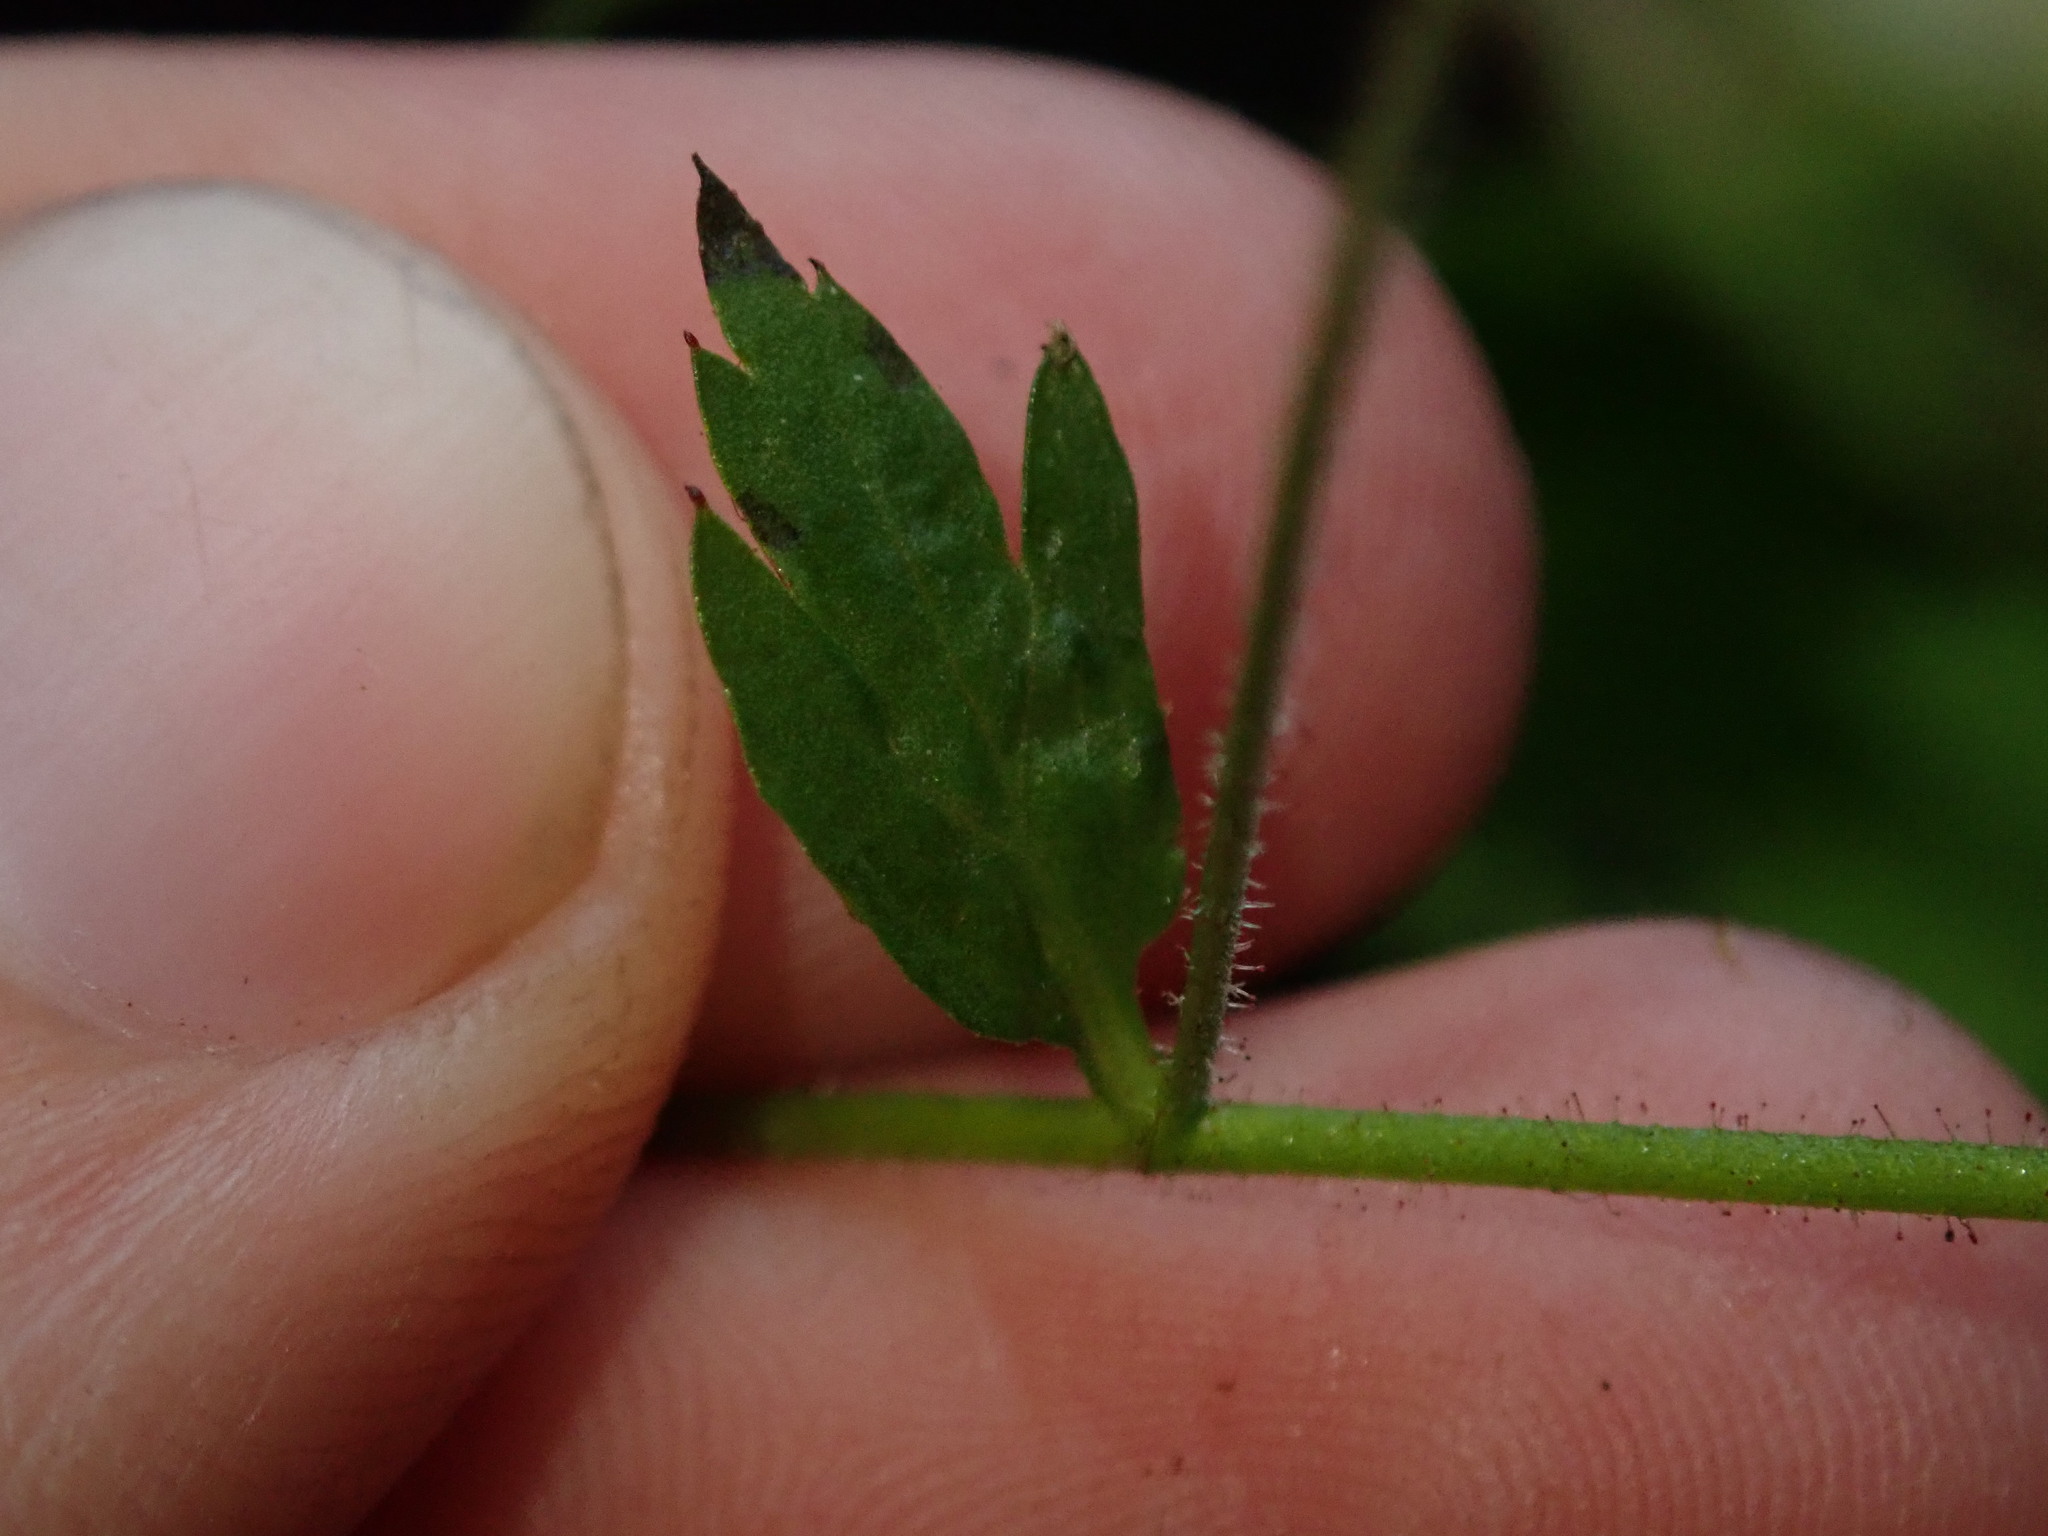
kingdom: Plantae
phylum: Tracheophyta
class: Magnoliopsida
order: Saxifragales
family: Saxifragaceae
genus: Boykinia
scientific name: Boykinia occidentalis
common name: Coast boykinia
